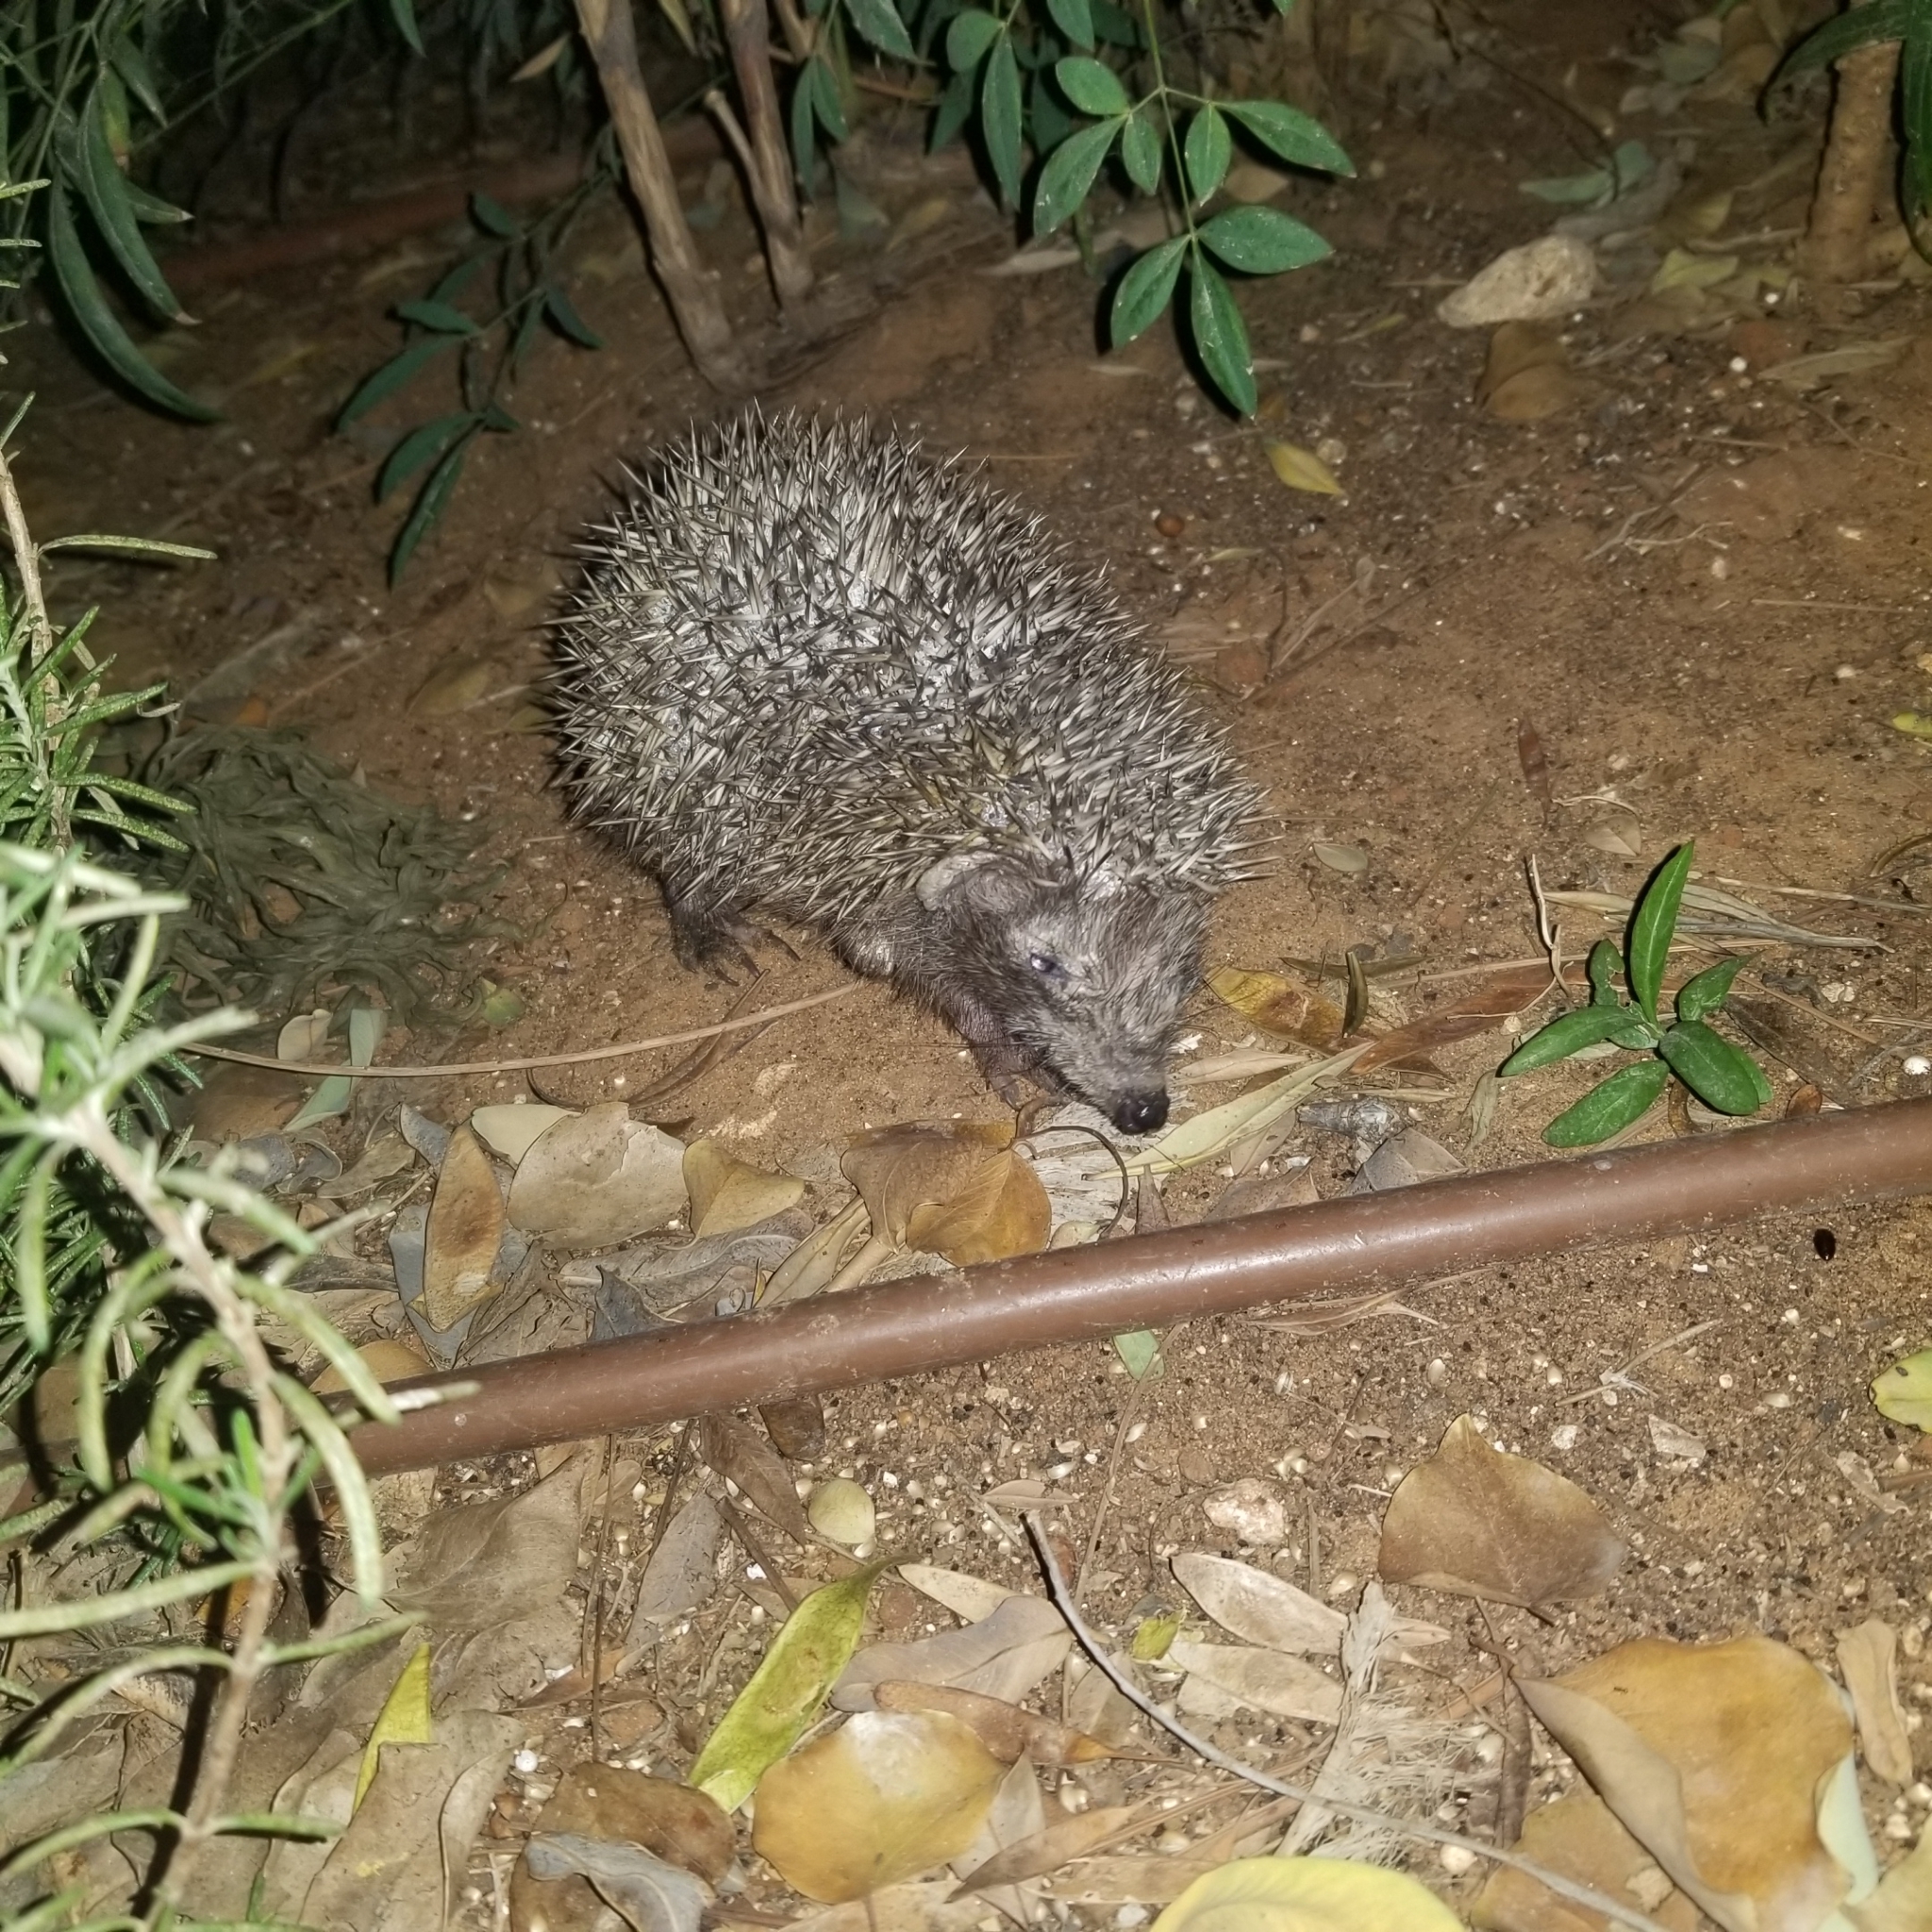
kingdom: Animalia
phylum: Chordata
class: Mammalia
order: Erinaceomorpha
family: Erinaceidae
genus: Erinaceus
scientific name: Erinaceus concolor
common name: Southern white-breasted hedgehog
